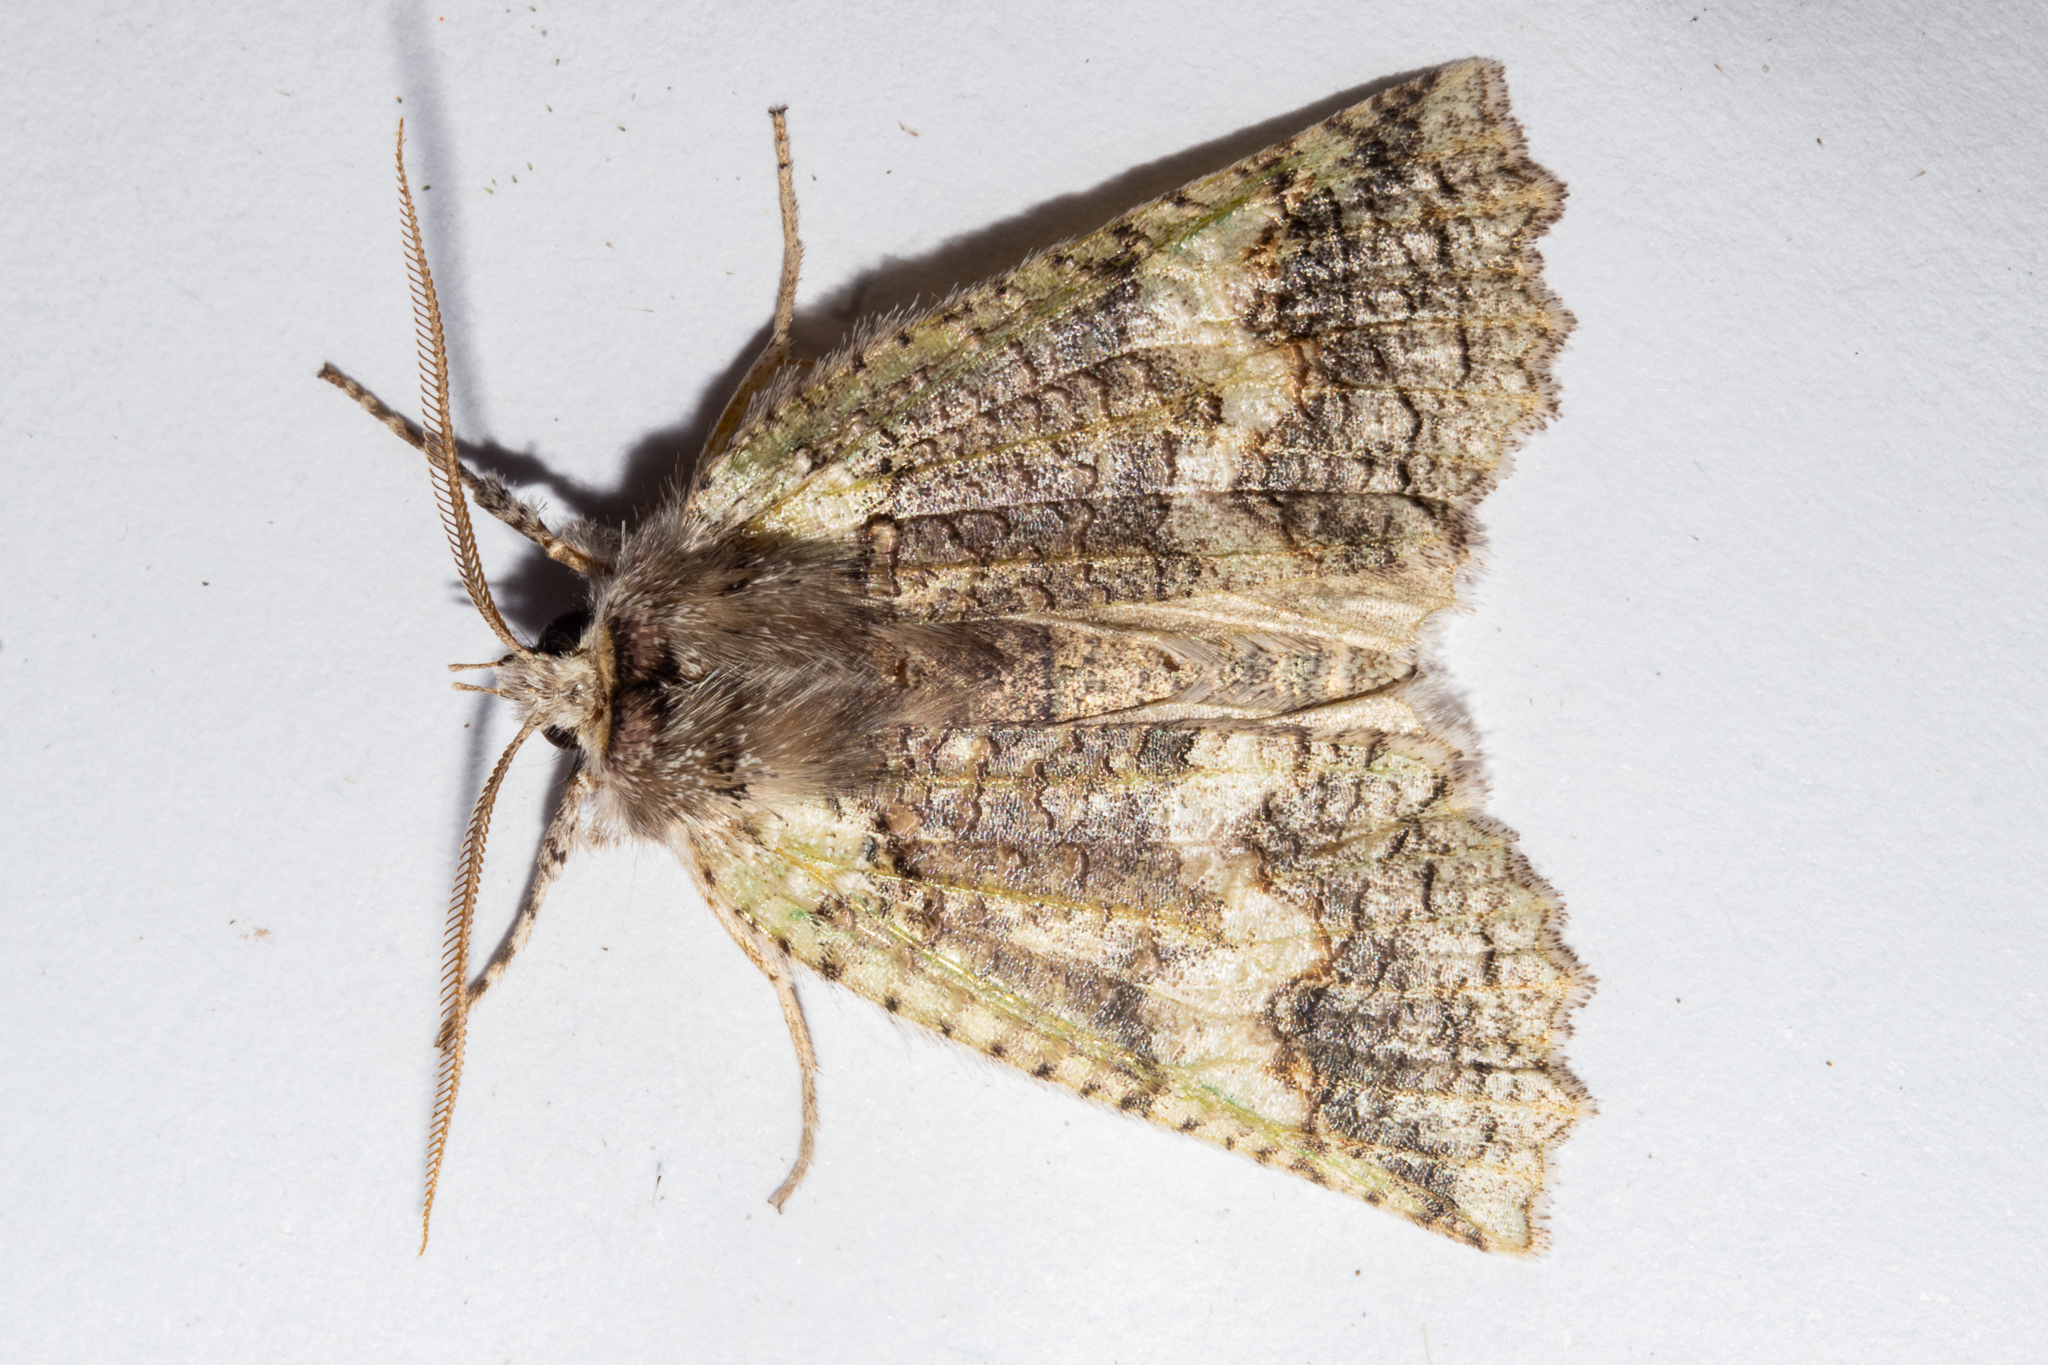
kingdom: Animalia
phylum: Arthropoda
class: Insecta
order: Lepidoptera
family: Geometridae
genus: Declana
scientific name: Declana floccosa
